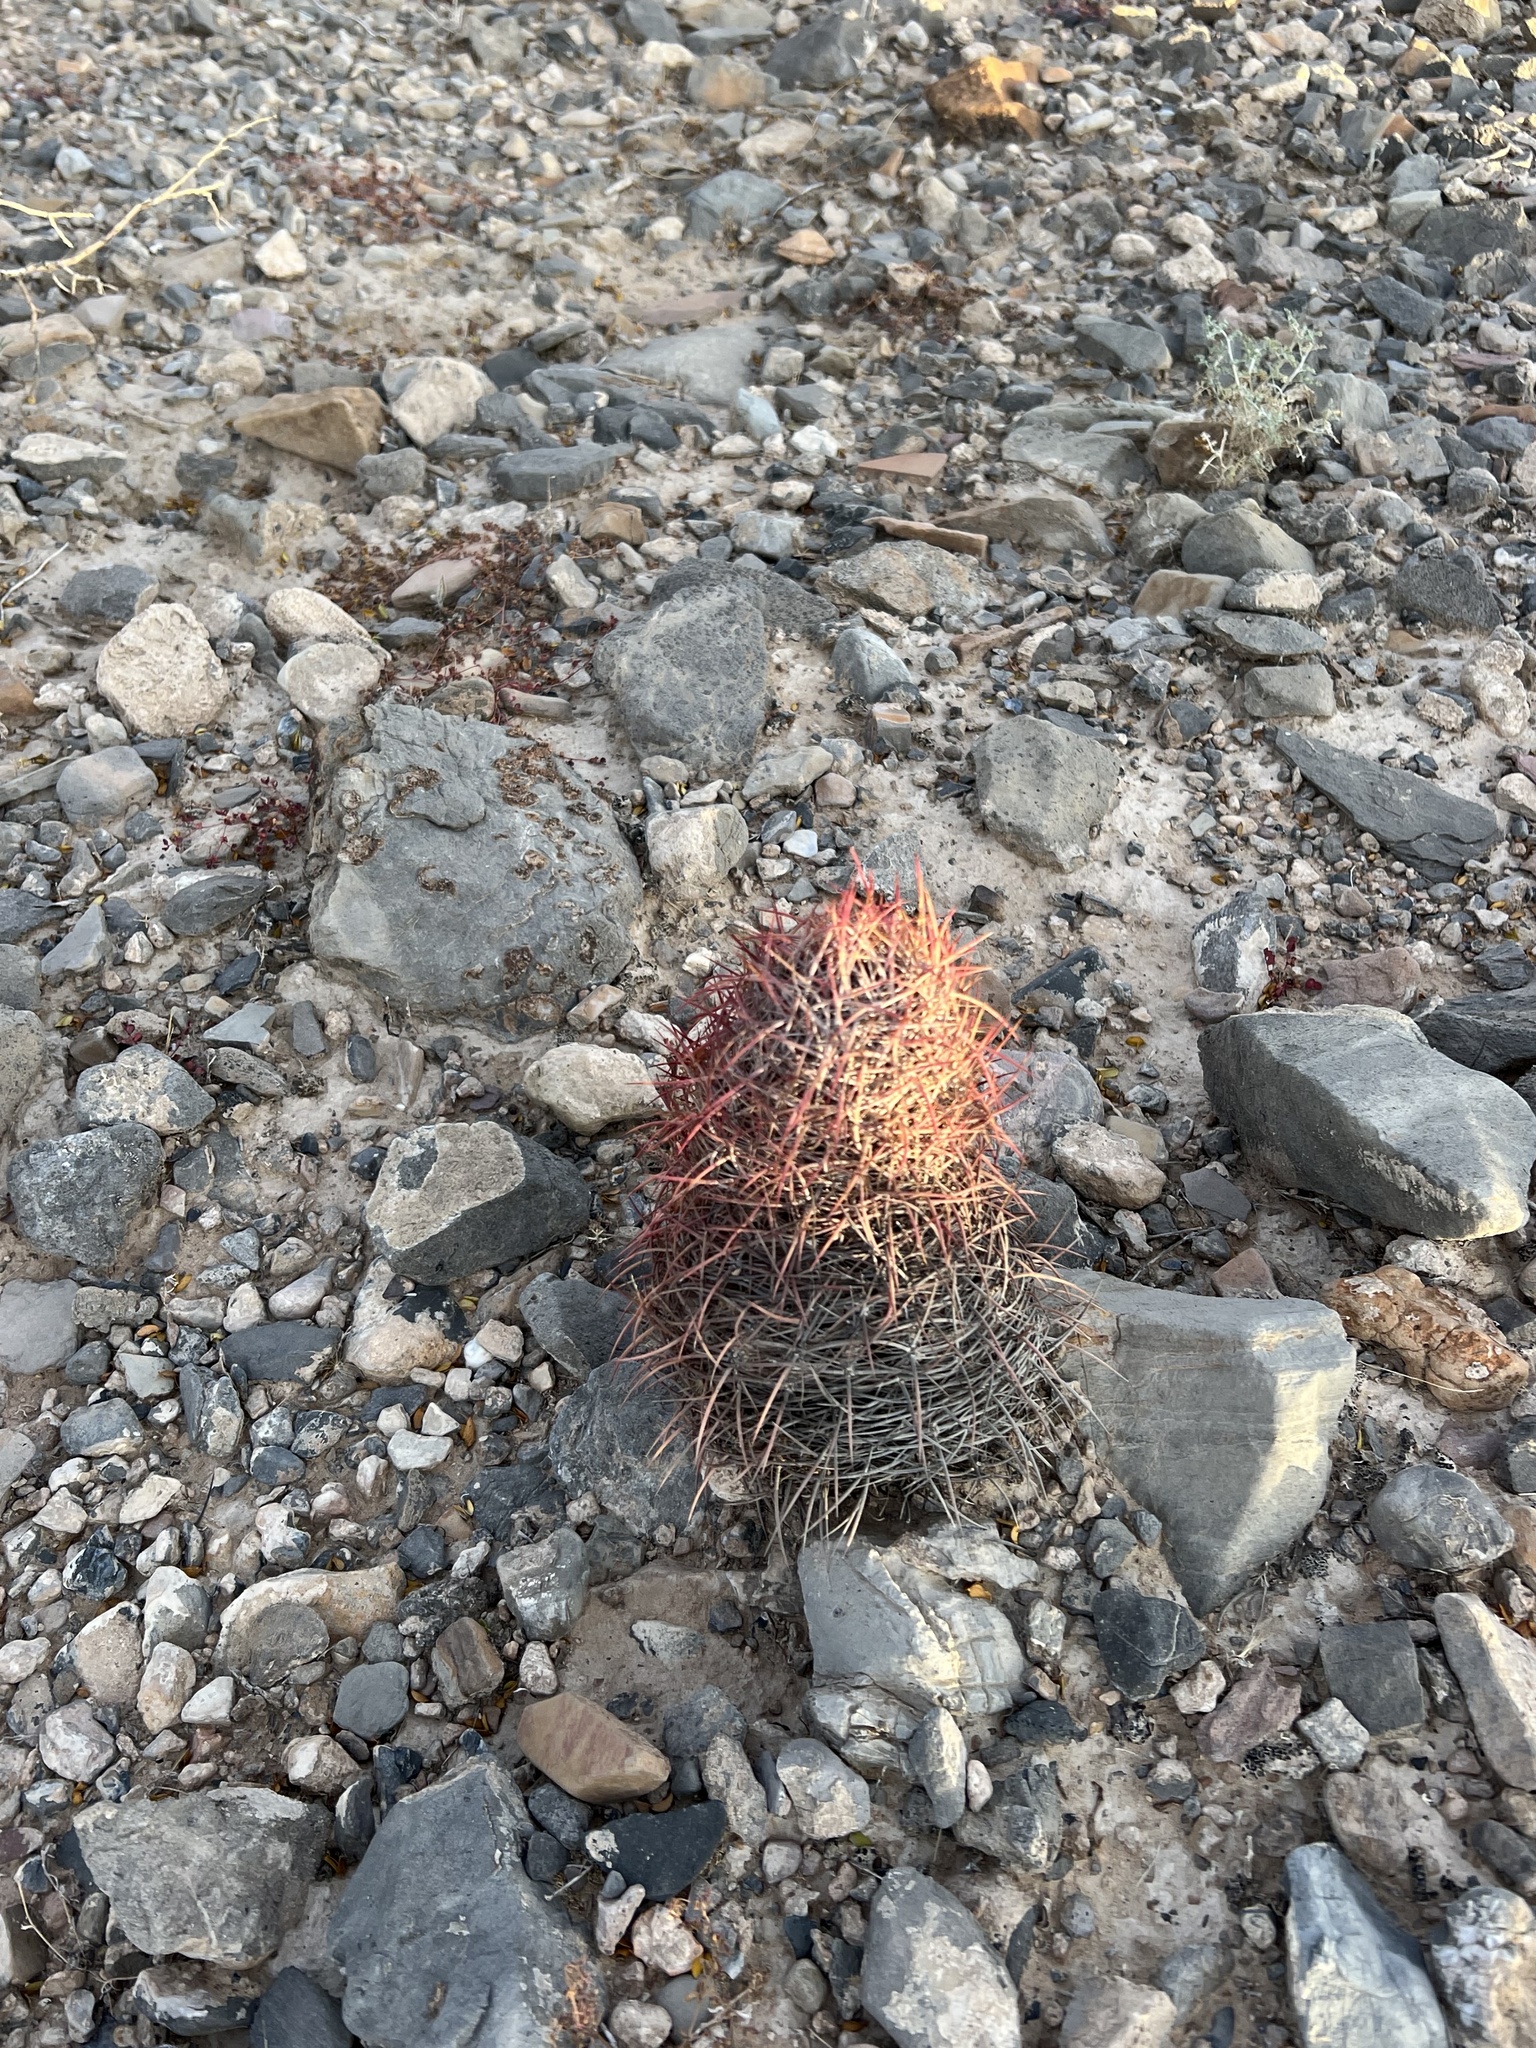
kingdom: Plantae
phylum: Tracheophyta
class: Magnoliopsida
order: Caryophyllales
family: Cactaceae
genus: Sclerocactus
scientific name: Sclerocactus johnsonii
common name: Eight-spine fishhook cactus
